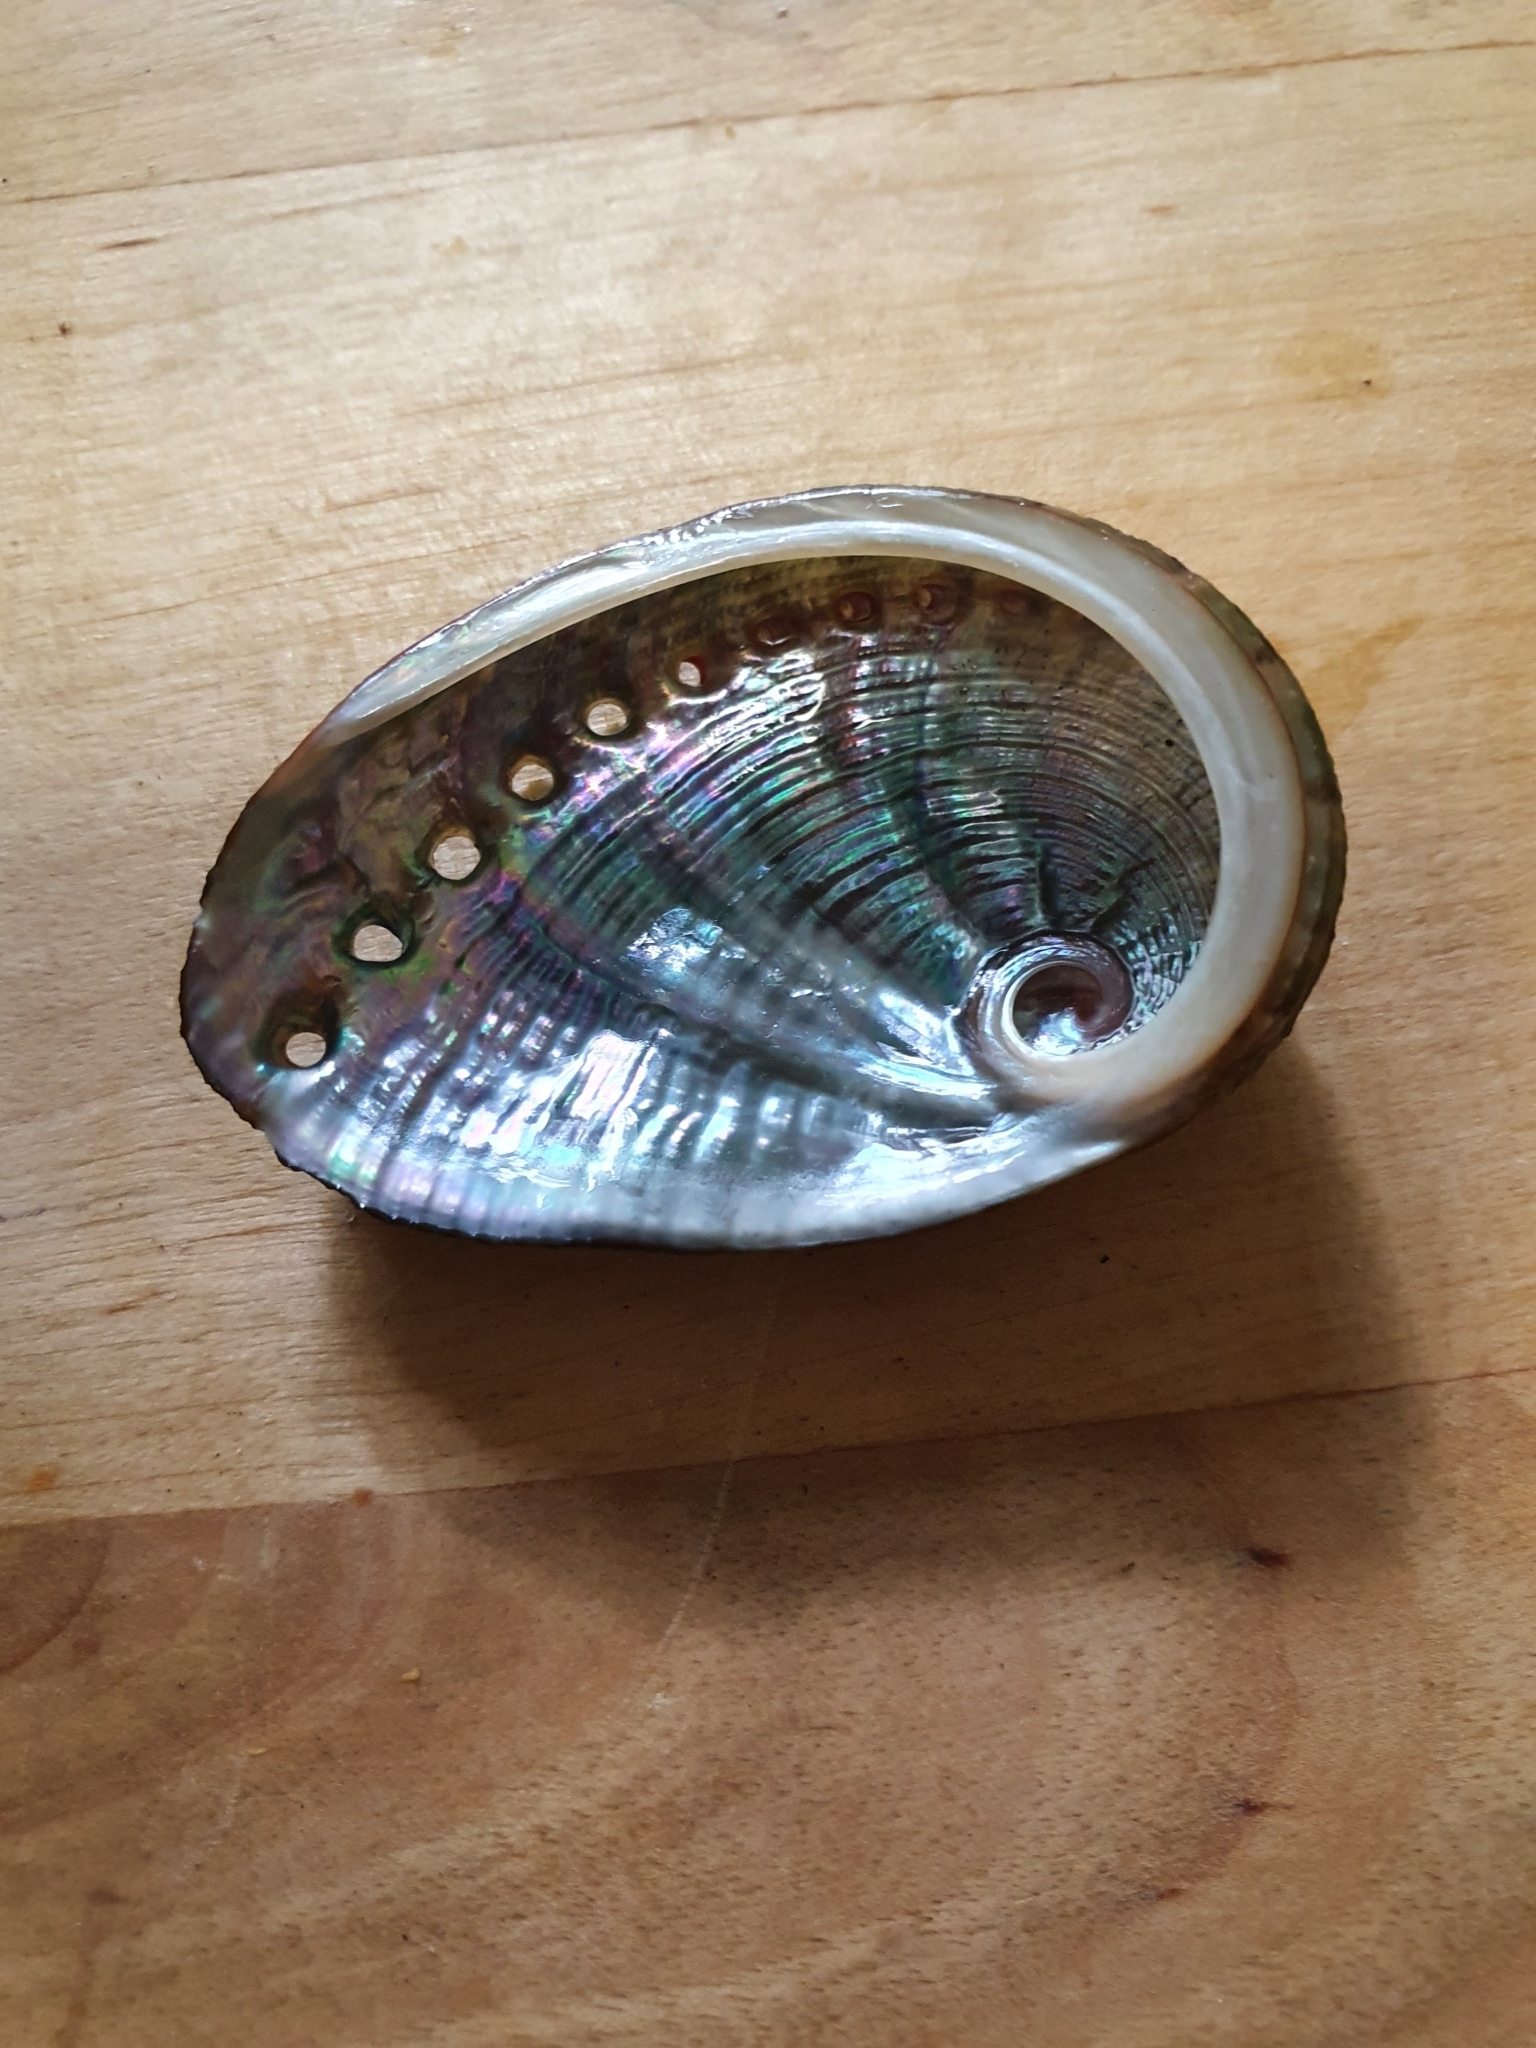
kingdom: Animalia
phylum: Mollusca
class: Gastropoda
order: Lepetellida
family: Haliotidae
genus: Haliotis
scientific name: Haliotis coccoradiata
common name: Reddish-rayed abalone
